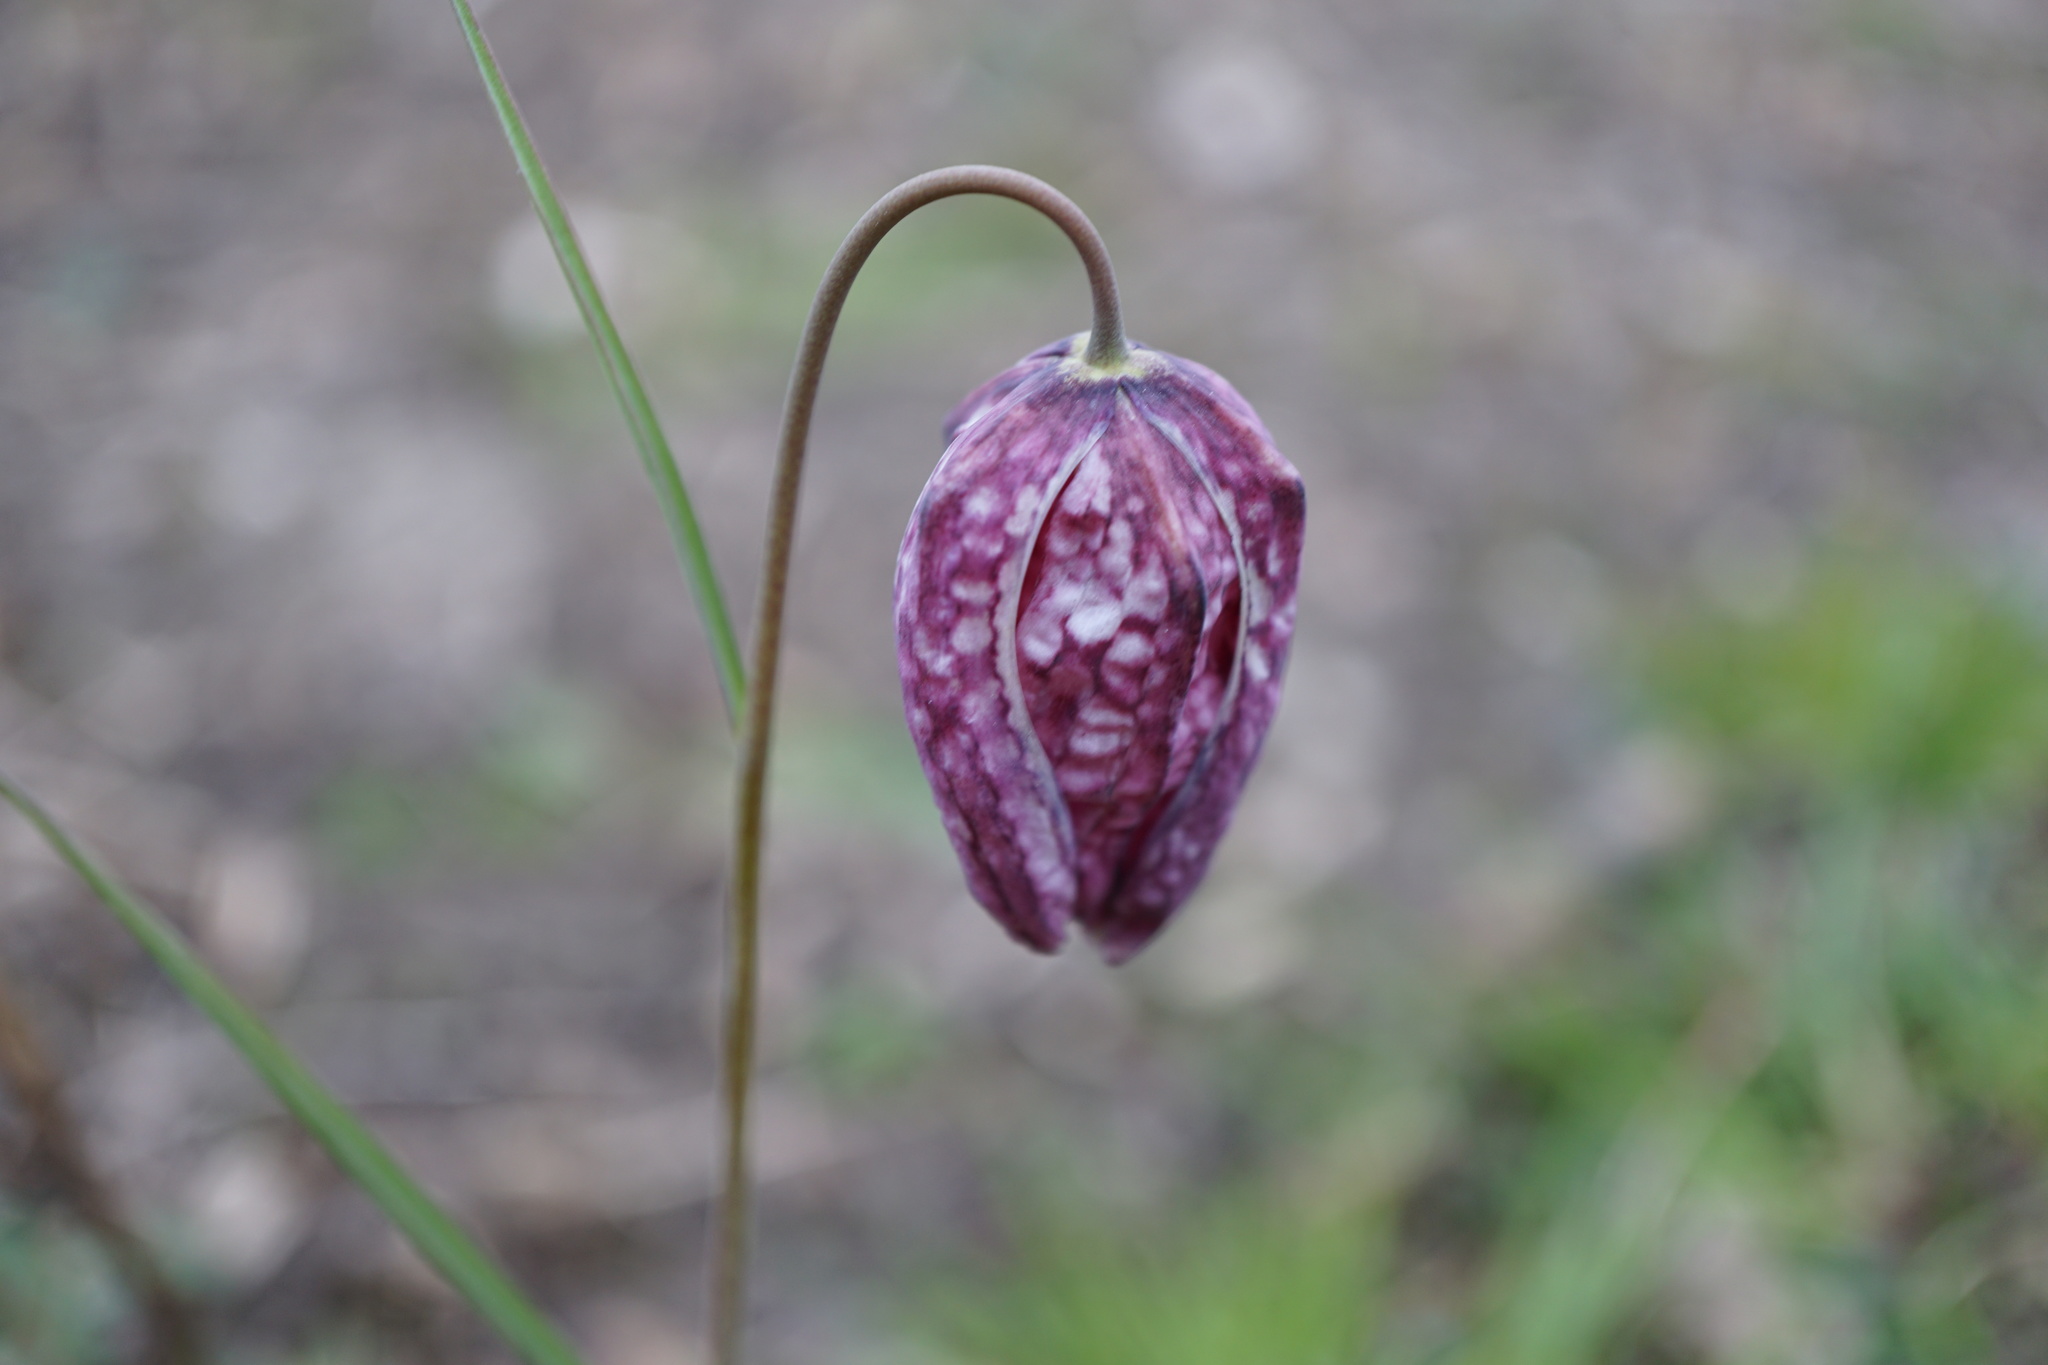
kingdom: Plantae
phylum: Tracheophyta
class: Liliopsida
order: Liliales
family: Liliaceae
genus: Fritillaria
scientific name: Fritillaria meleagris
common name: Fritillary
